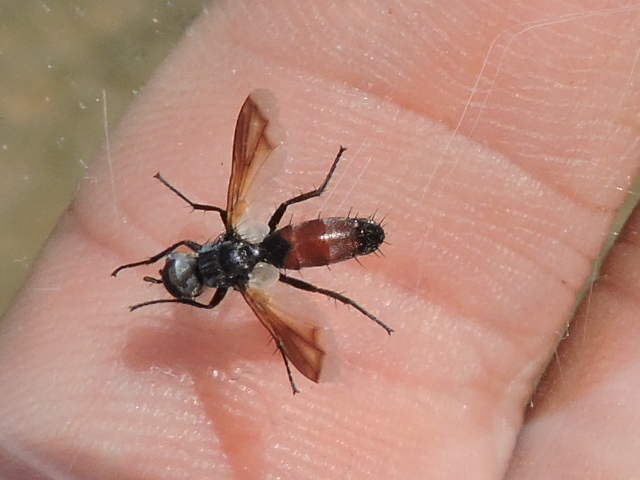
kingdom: Animalia
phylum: Arthropoda
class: Insecta
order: Diptera
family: Tachinidae
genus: Cylindromyia
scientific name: Cylindromyia
